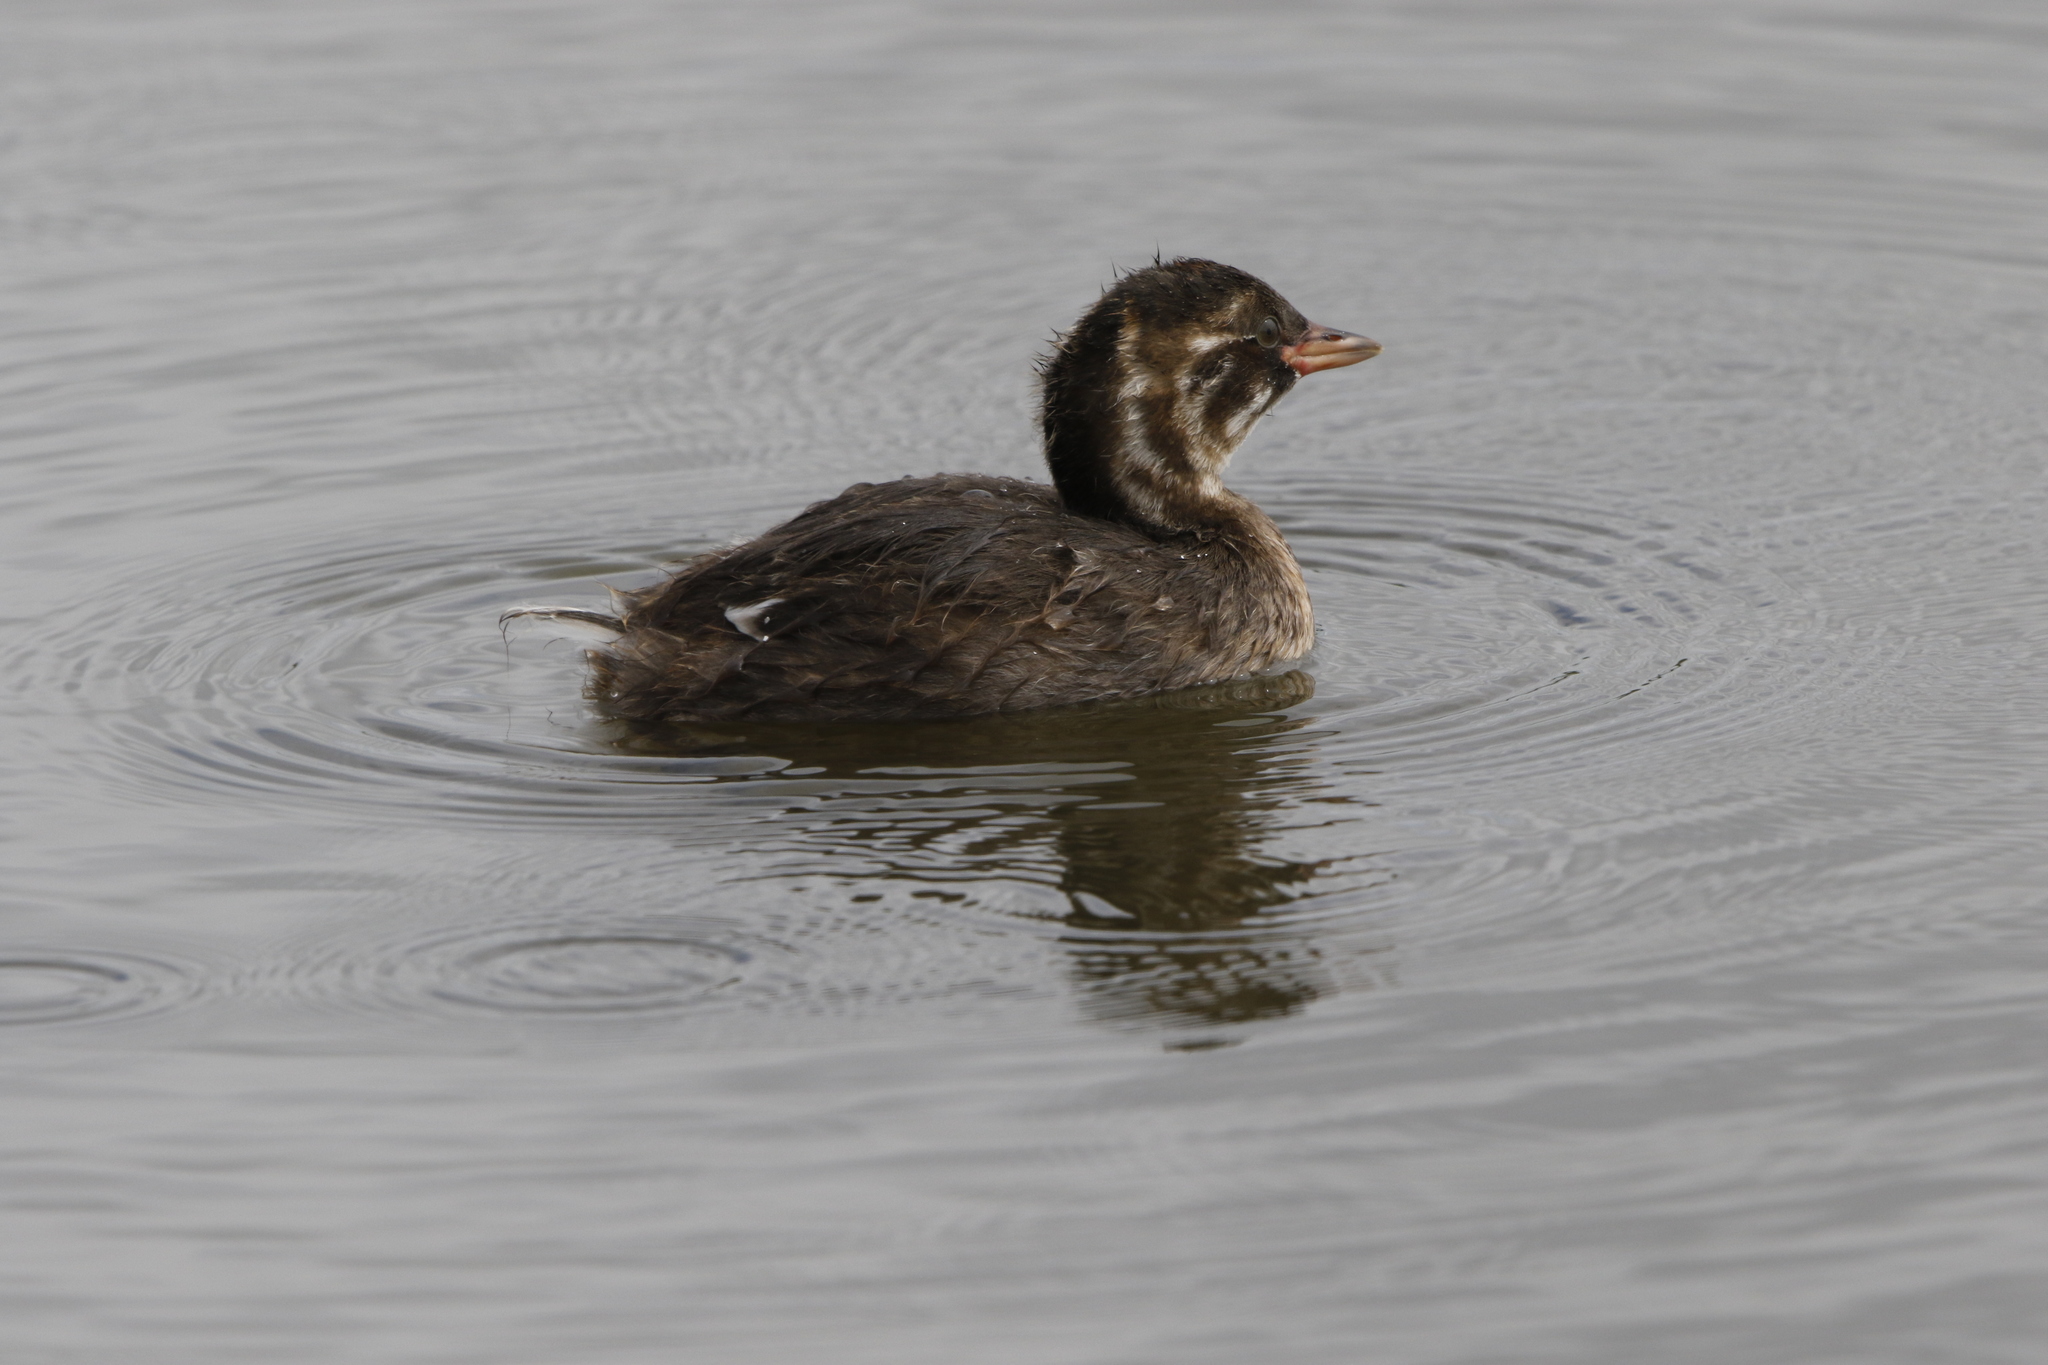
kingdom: Animalia
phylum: Chordata
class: Aves
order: Podicipediformes
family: Podicipedidae
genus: Tachybaptus
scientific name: Tachybaptus ruficollis
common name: Little grebe
